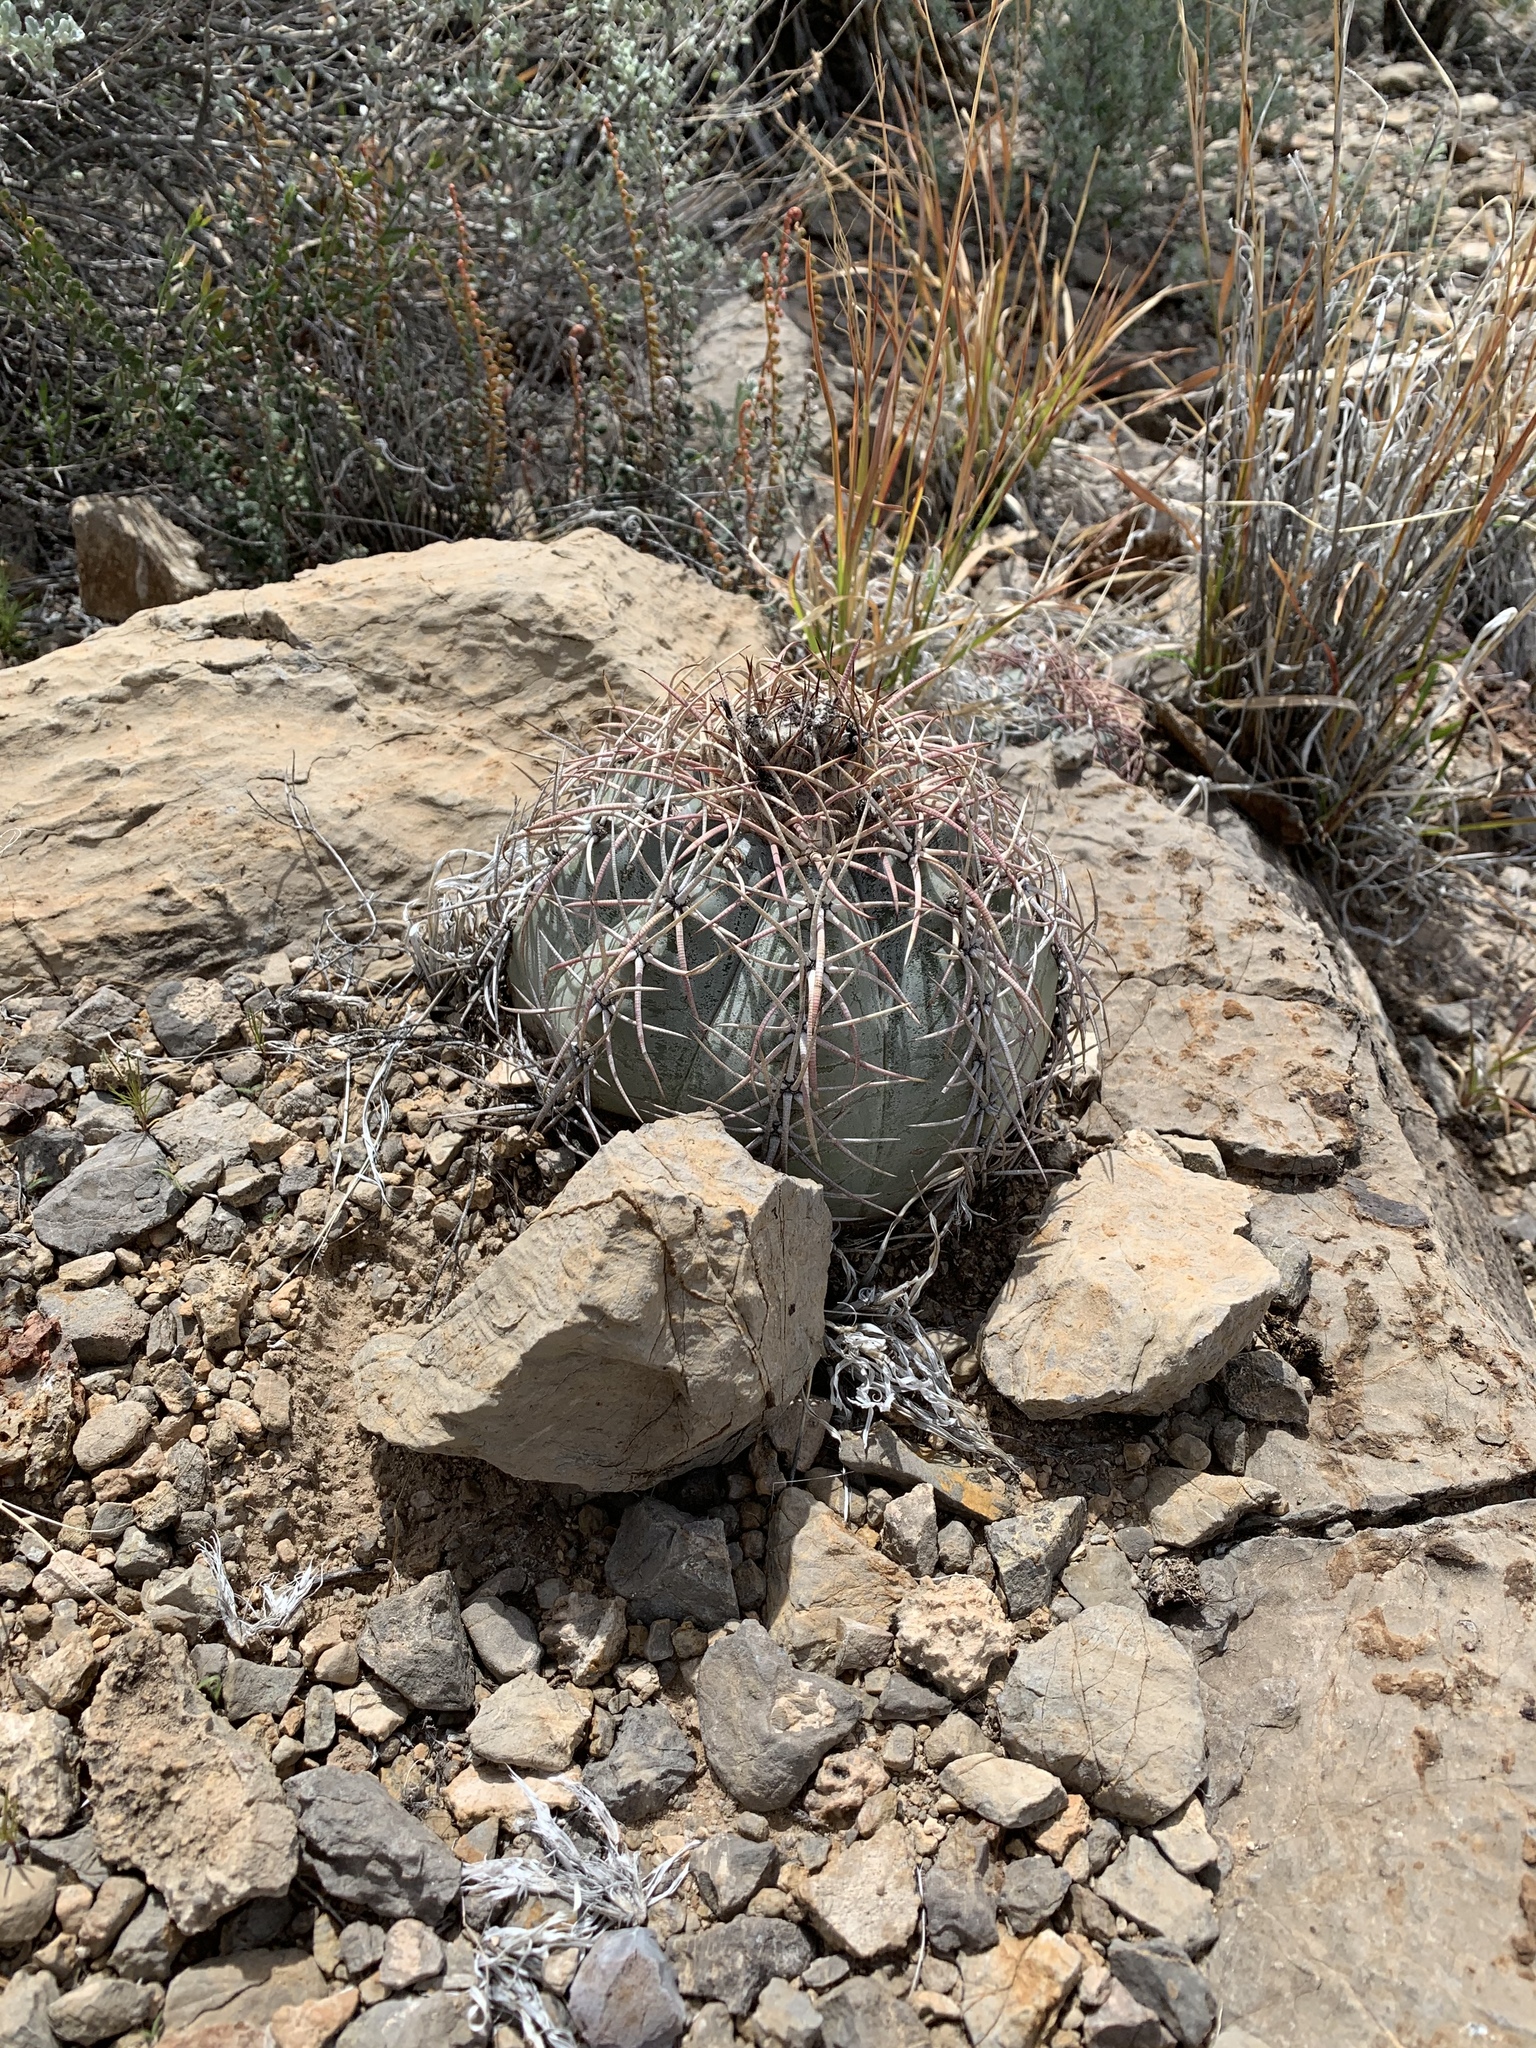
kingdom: Plantae
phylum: Tracheophyta
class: Magnoliopsida
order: Caryophyllales
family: Cactaceae
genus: Echinocactus
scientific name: Echinocactus horizonthalonius
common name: Devilshead
